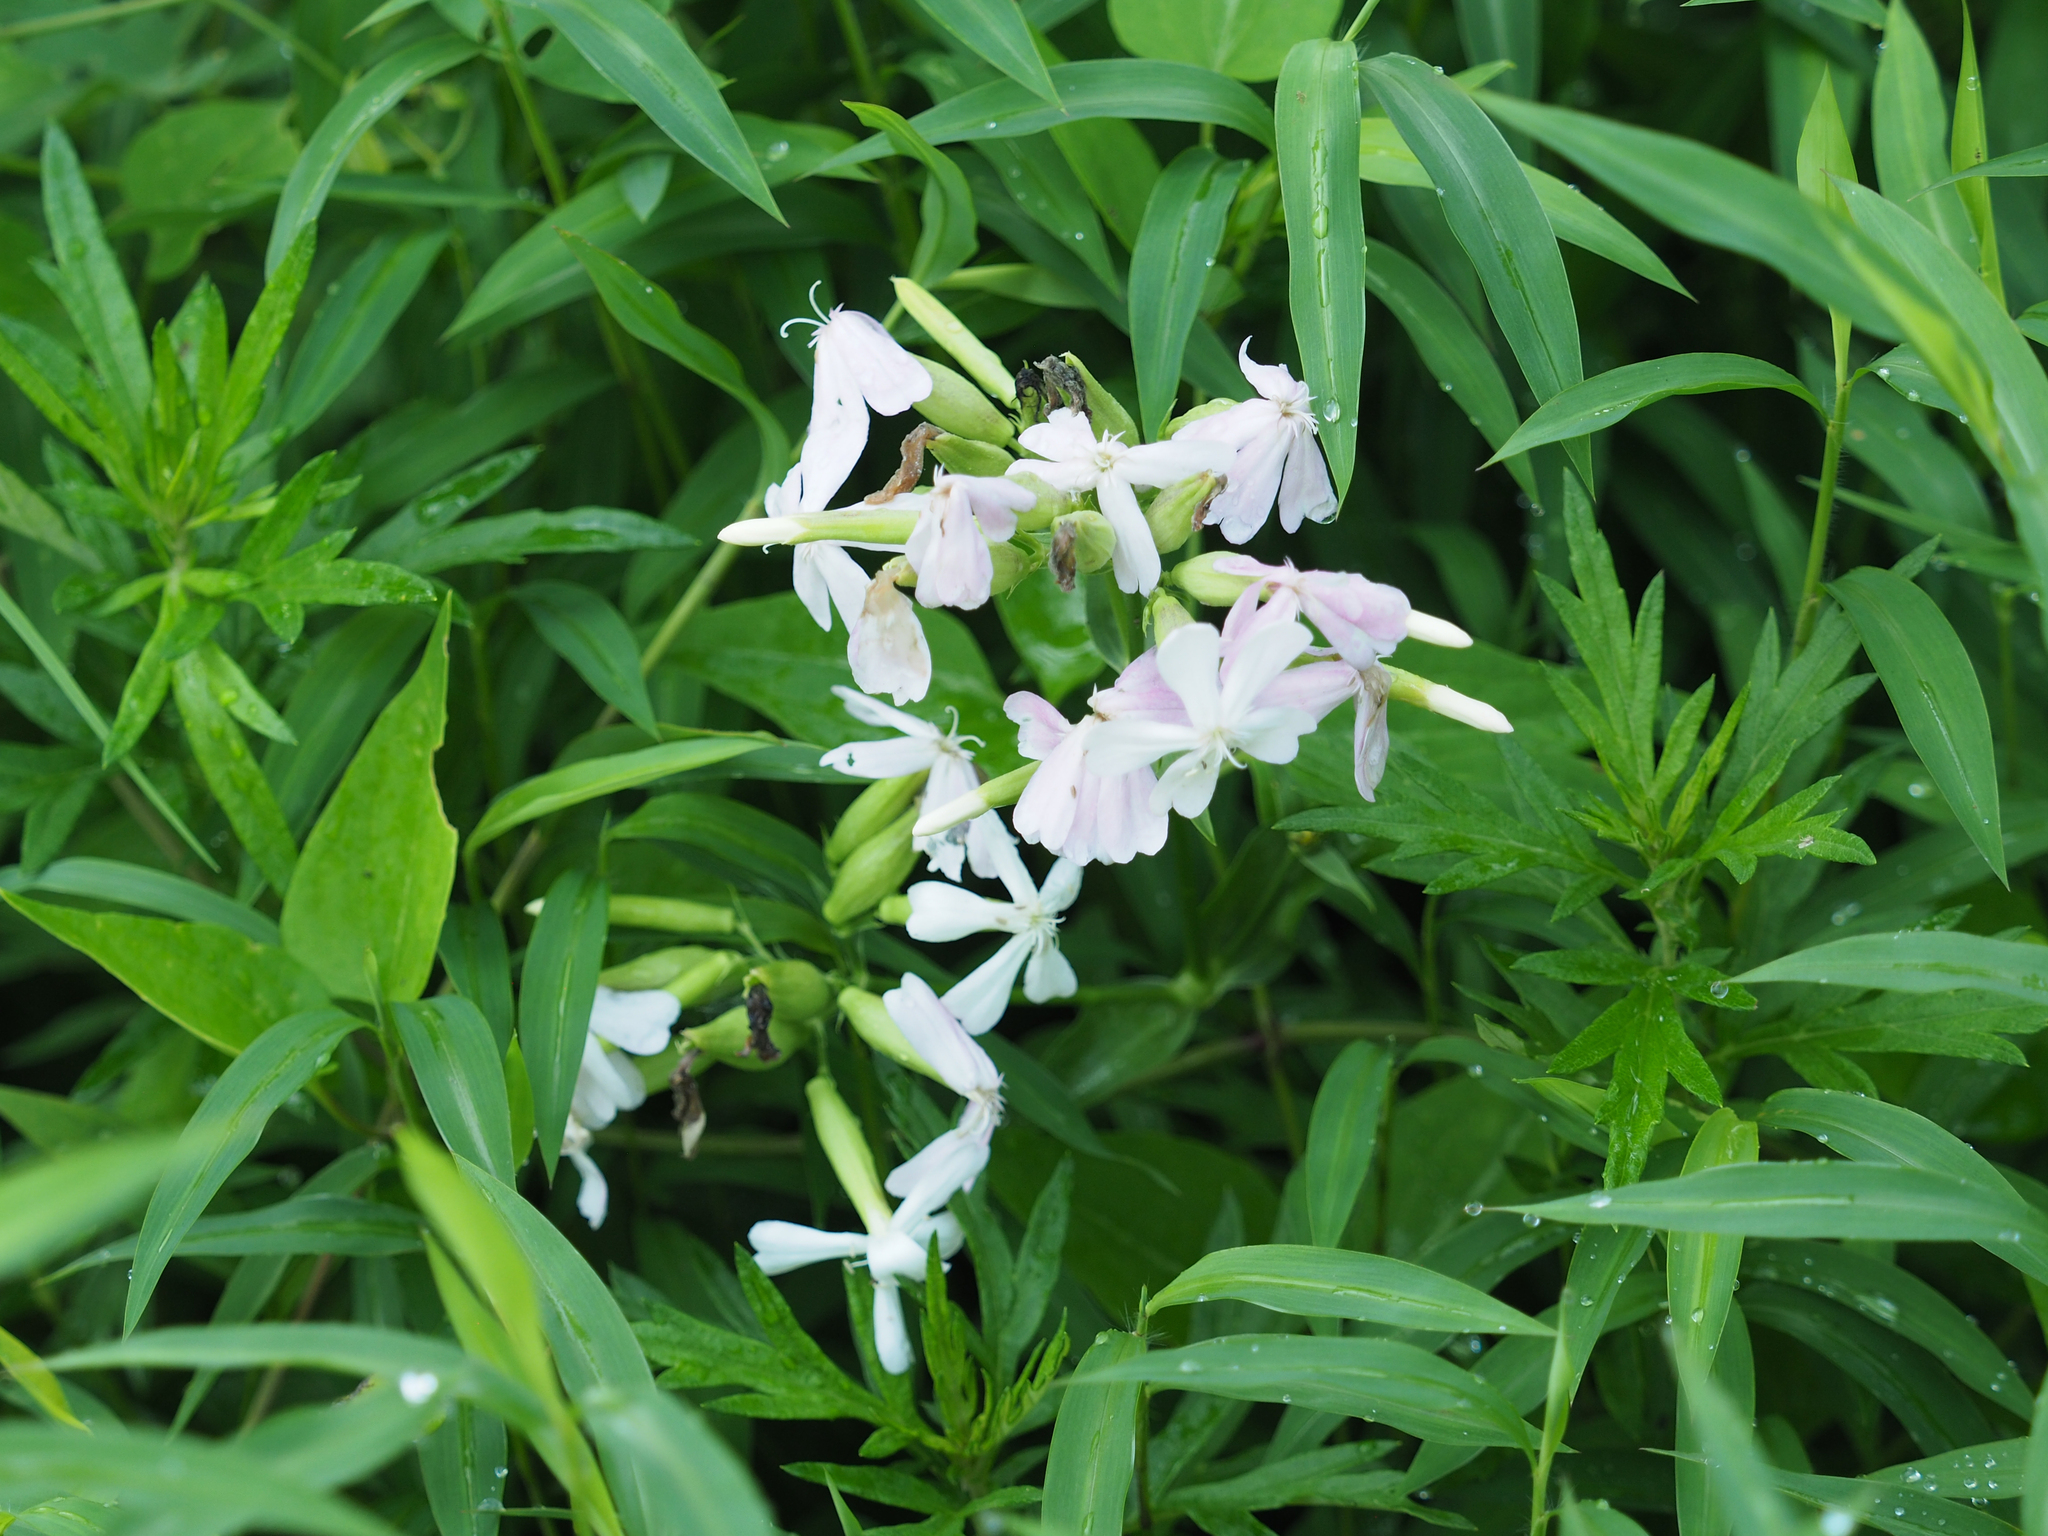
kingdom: Plantae
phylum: Tracheophyta
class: Magnoliopsida
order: Caryophyllales
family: Caryophyllaceae
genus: Saponaria
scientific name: Saponaria officinalis
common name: Soapwort
